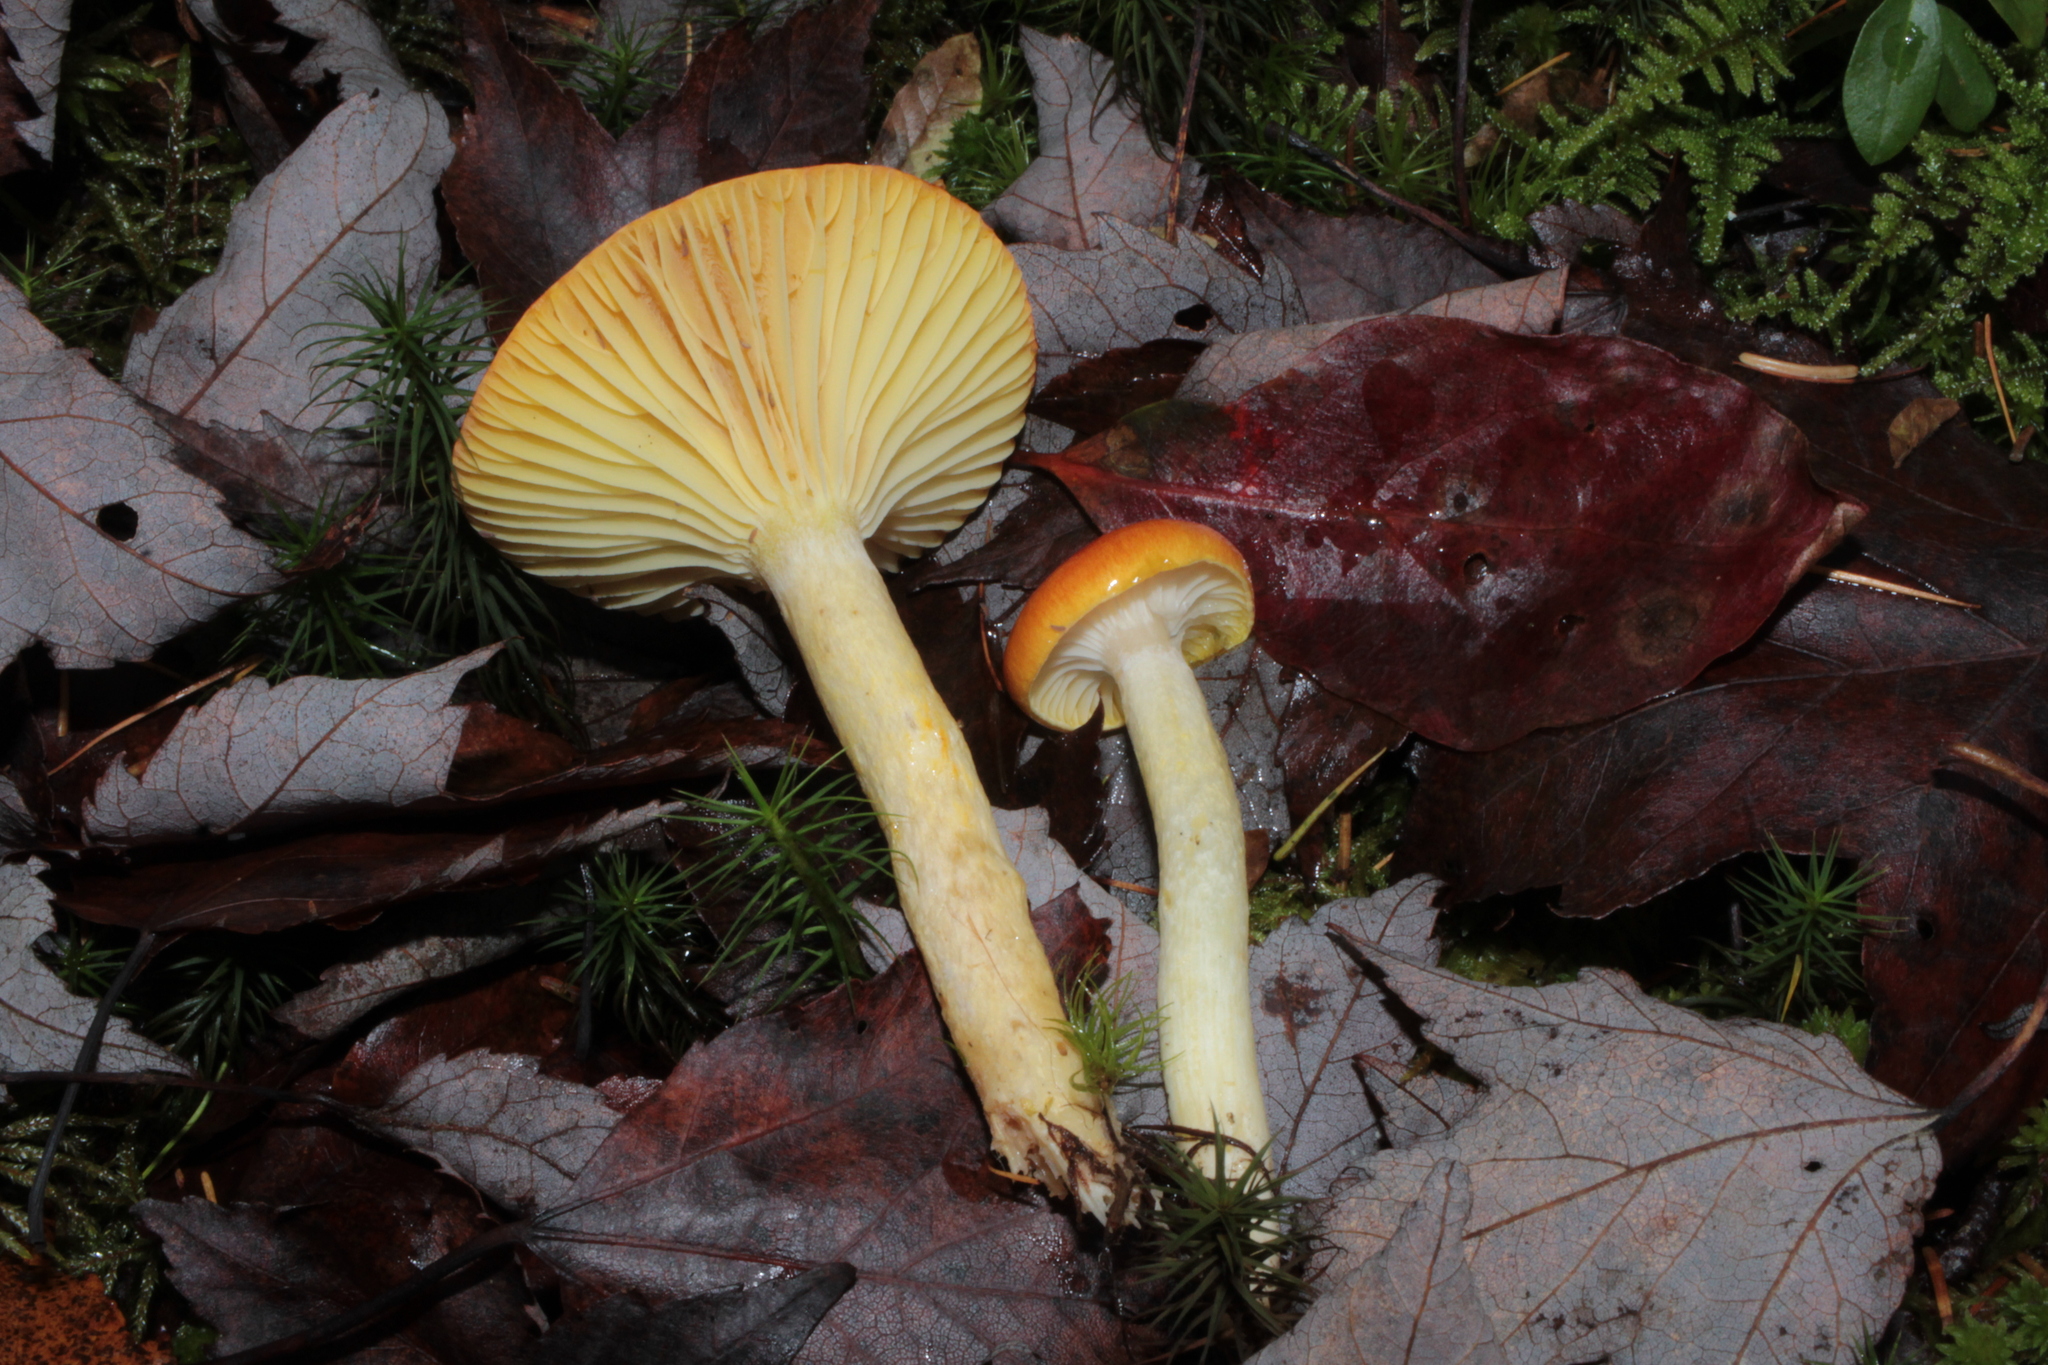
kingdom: Fungi
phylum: Basidiomycota
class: Agaricomycetes
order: Agaricales
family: Hygrophoraceae
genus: Hygrophorus
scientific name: Hygrophorus speciosus
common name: Splendid woodwax
